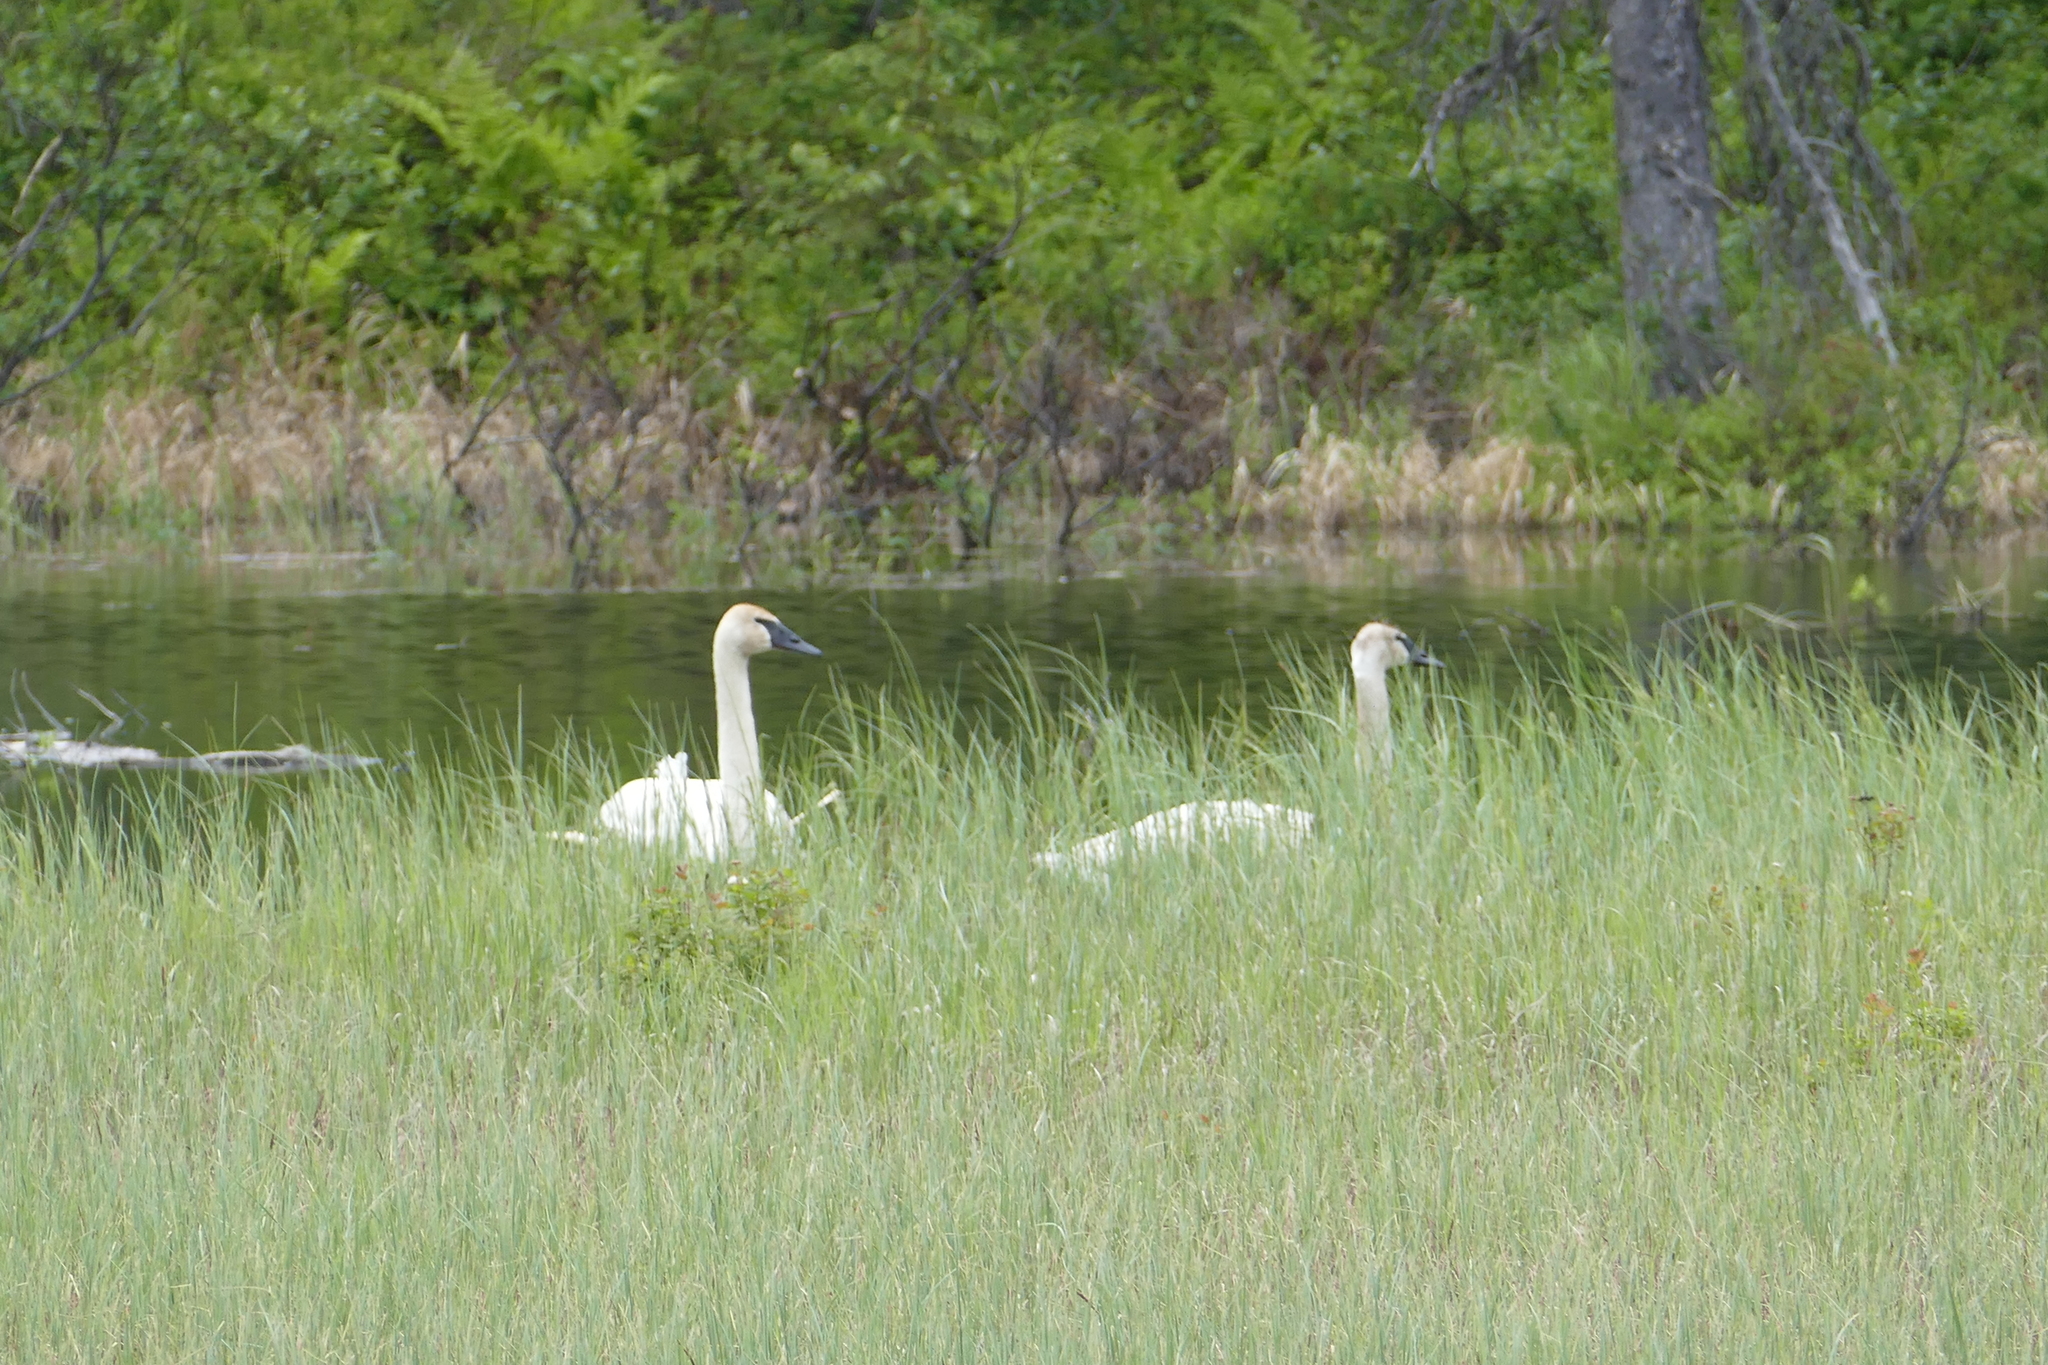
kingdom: Animalia
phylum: Chordata
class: Aves
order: Anseriformes
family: Anatidae
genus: Cygnus
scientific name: Cygnus buccinator
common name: Trumpeter swan
